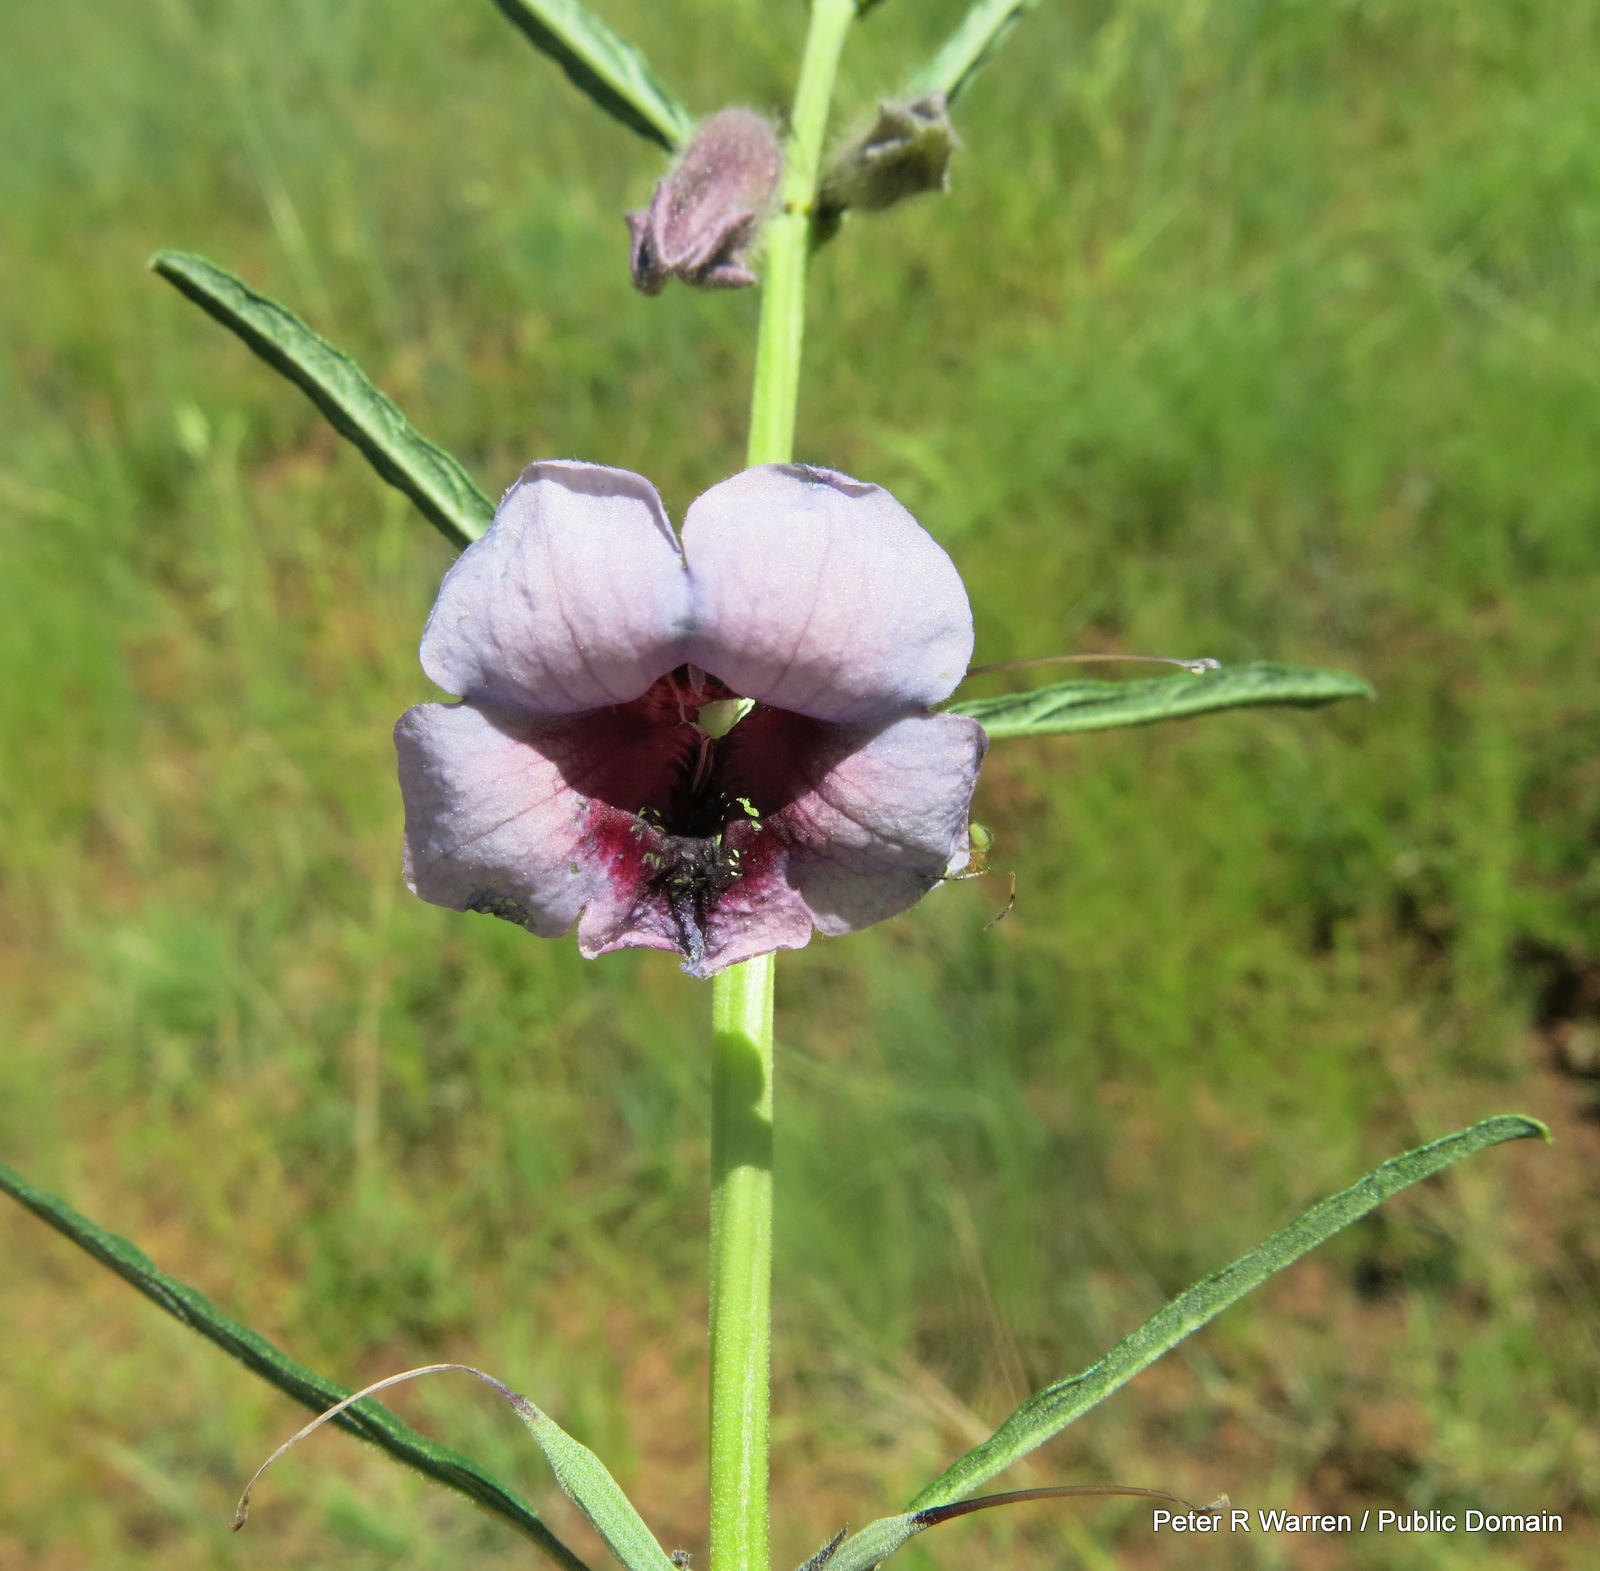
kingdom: Plantae
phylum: Tracheophyta
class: Magnoliopsida
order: Lamiales
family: Pedaliaceae
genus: Sesamum
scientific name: Sesamum triphyllum
